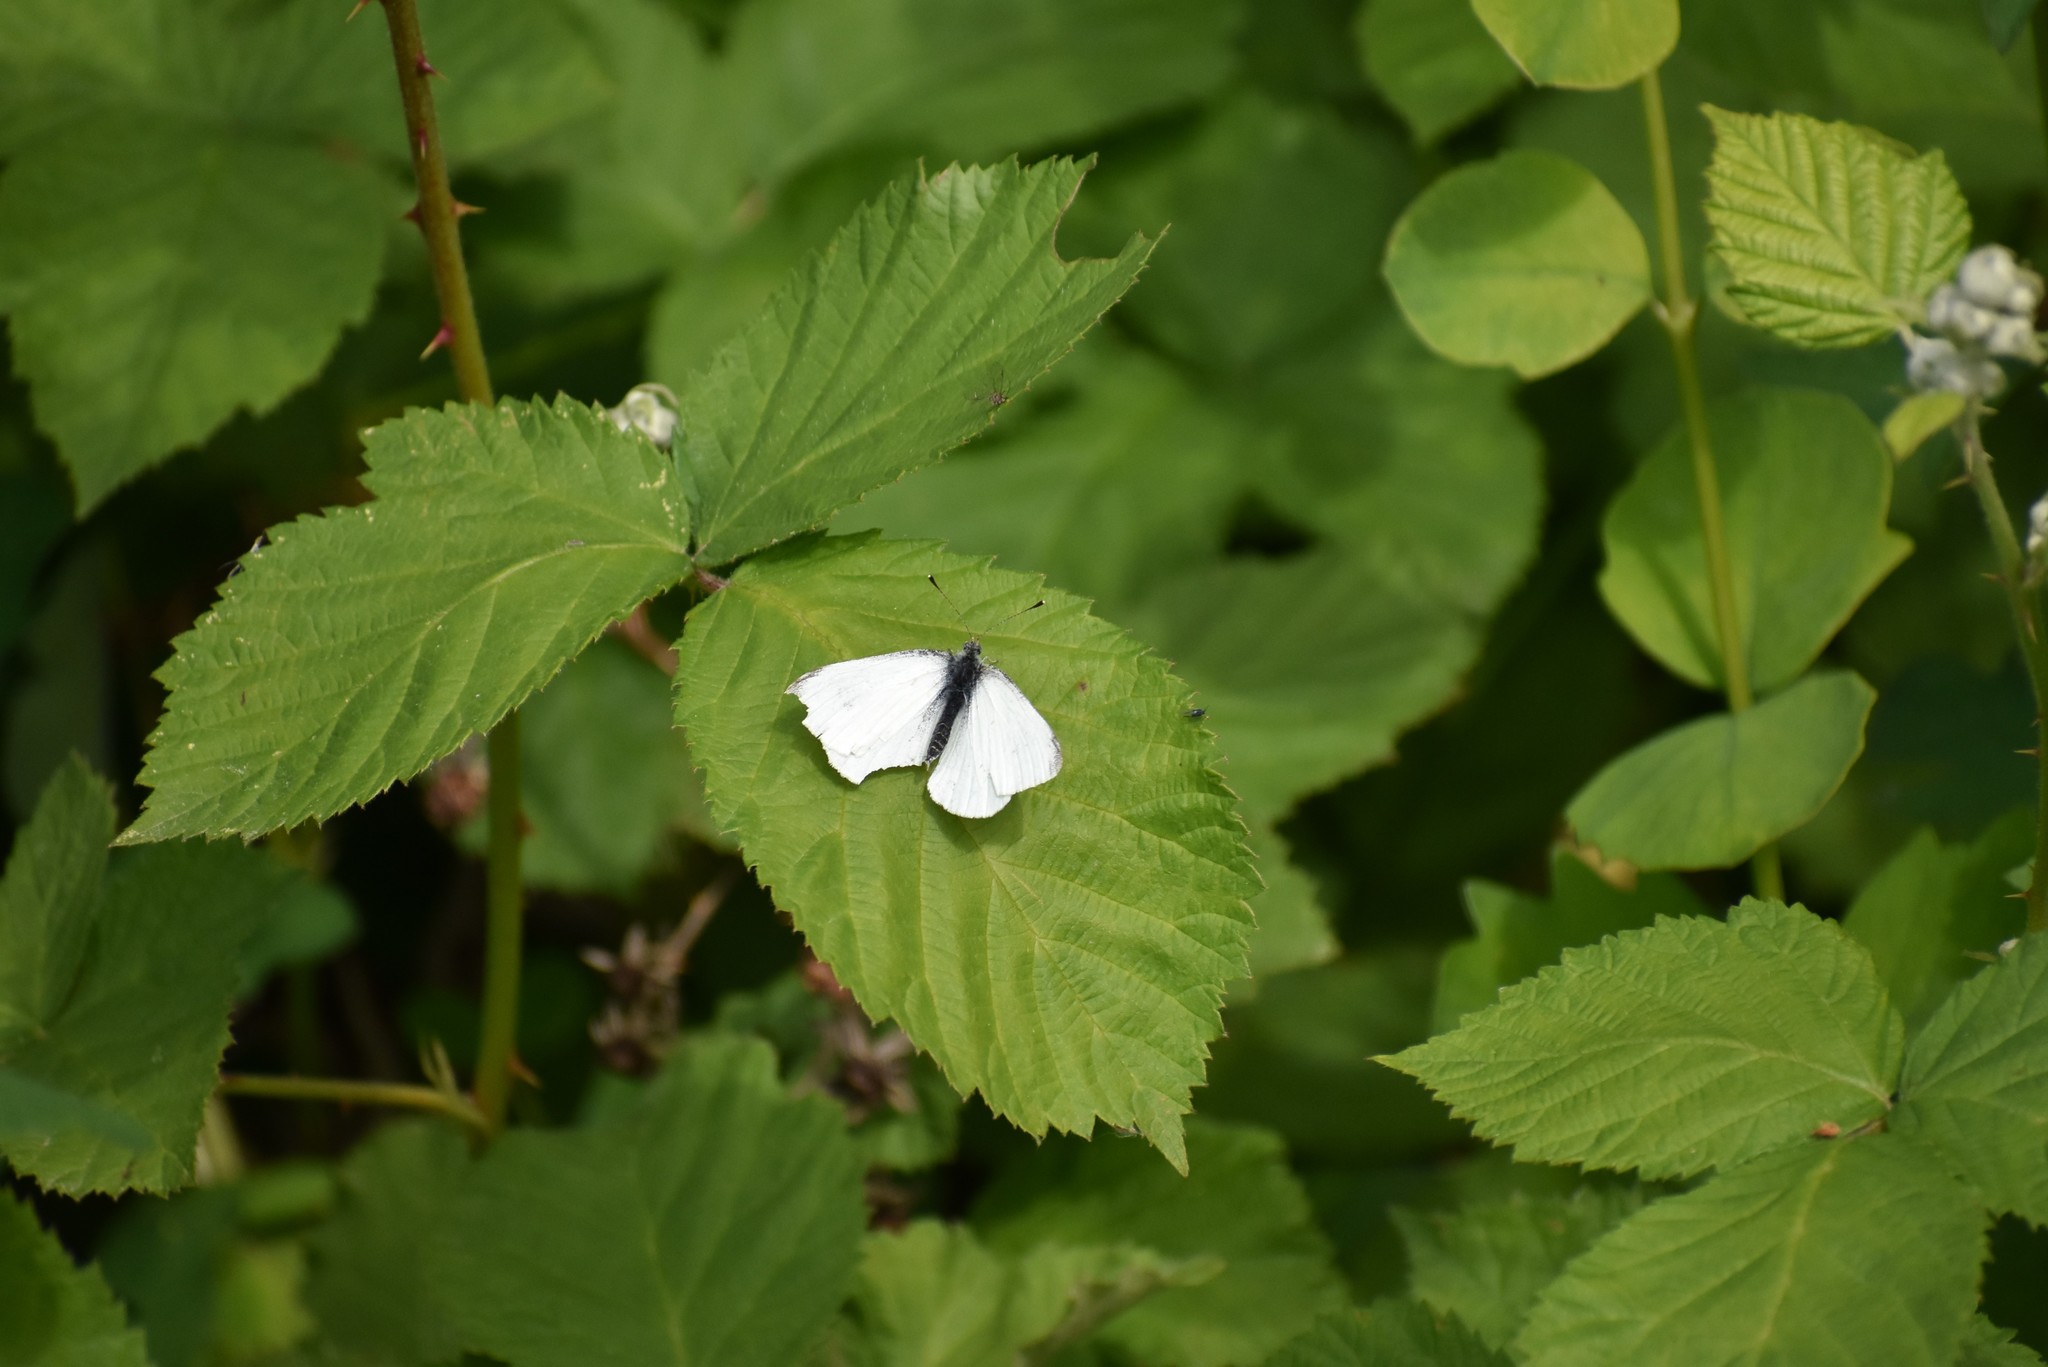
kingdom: Animalia
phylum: Arthropoda
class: Insecta
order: Lepidoptera
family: Pieridae
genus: Pieris
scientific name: Pieris rapae
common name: Small white
